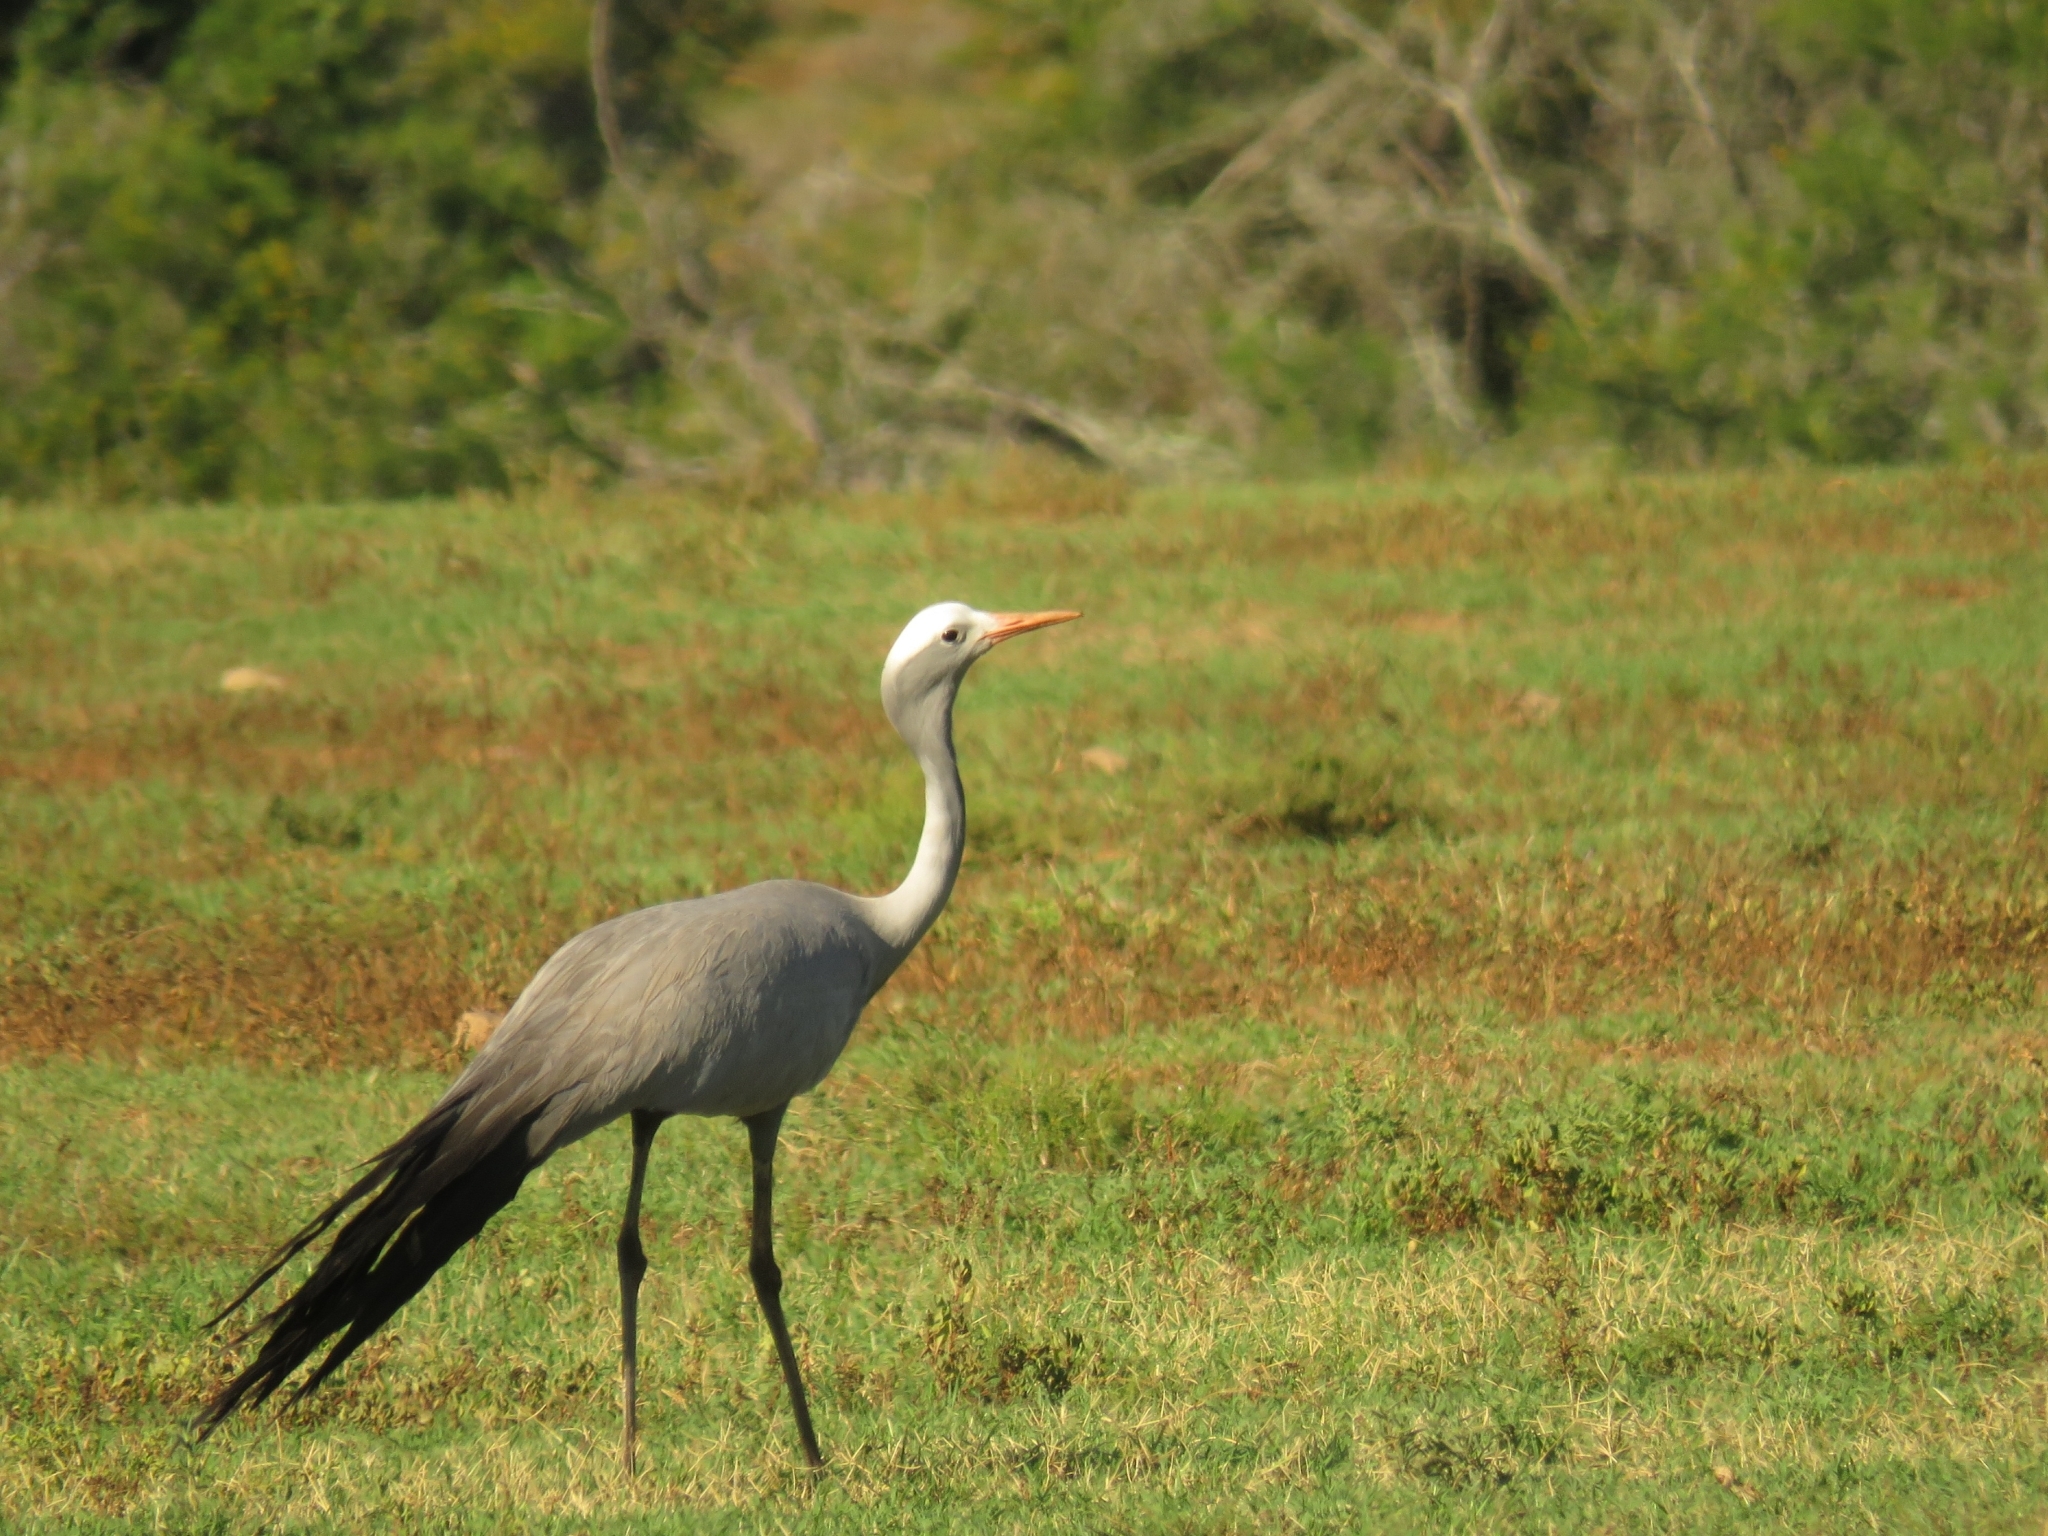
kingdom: Animalia
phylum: Chordata
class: Aves
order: Gruiformes
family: Gruidae
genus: Anthropoides
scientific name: Anthropoides paradiseus
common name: Blue crane
